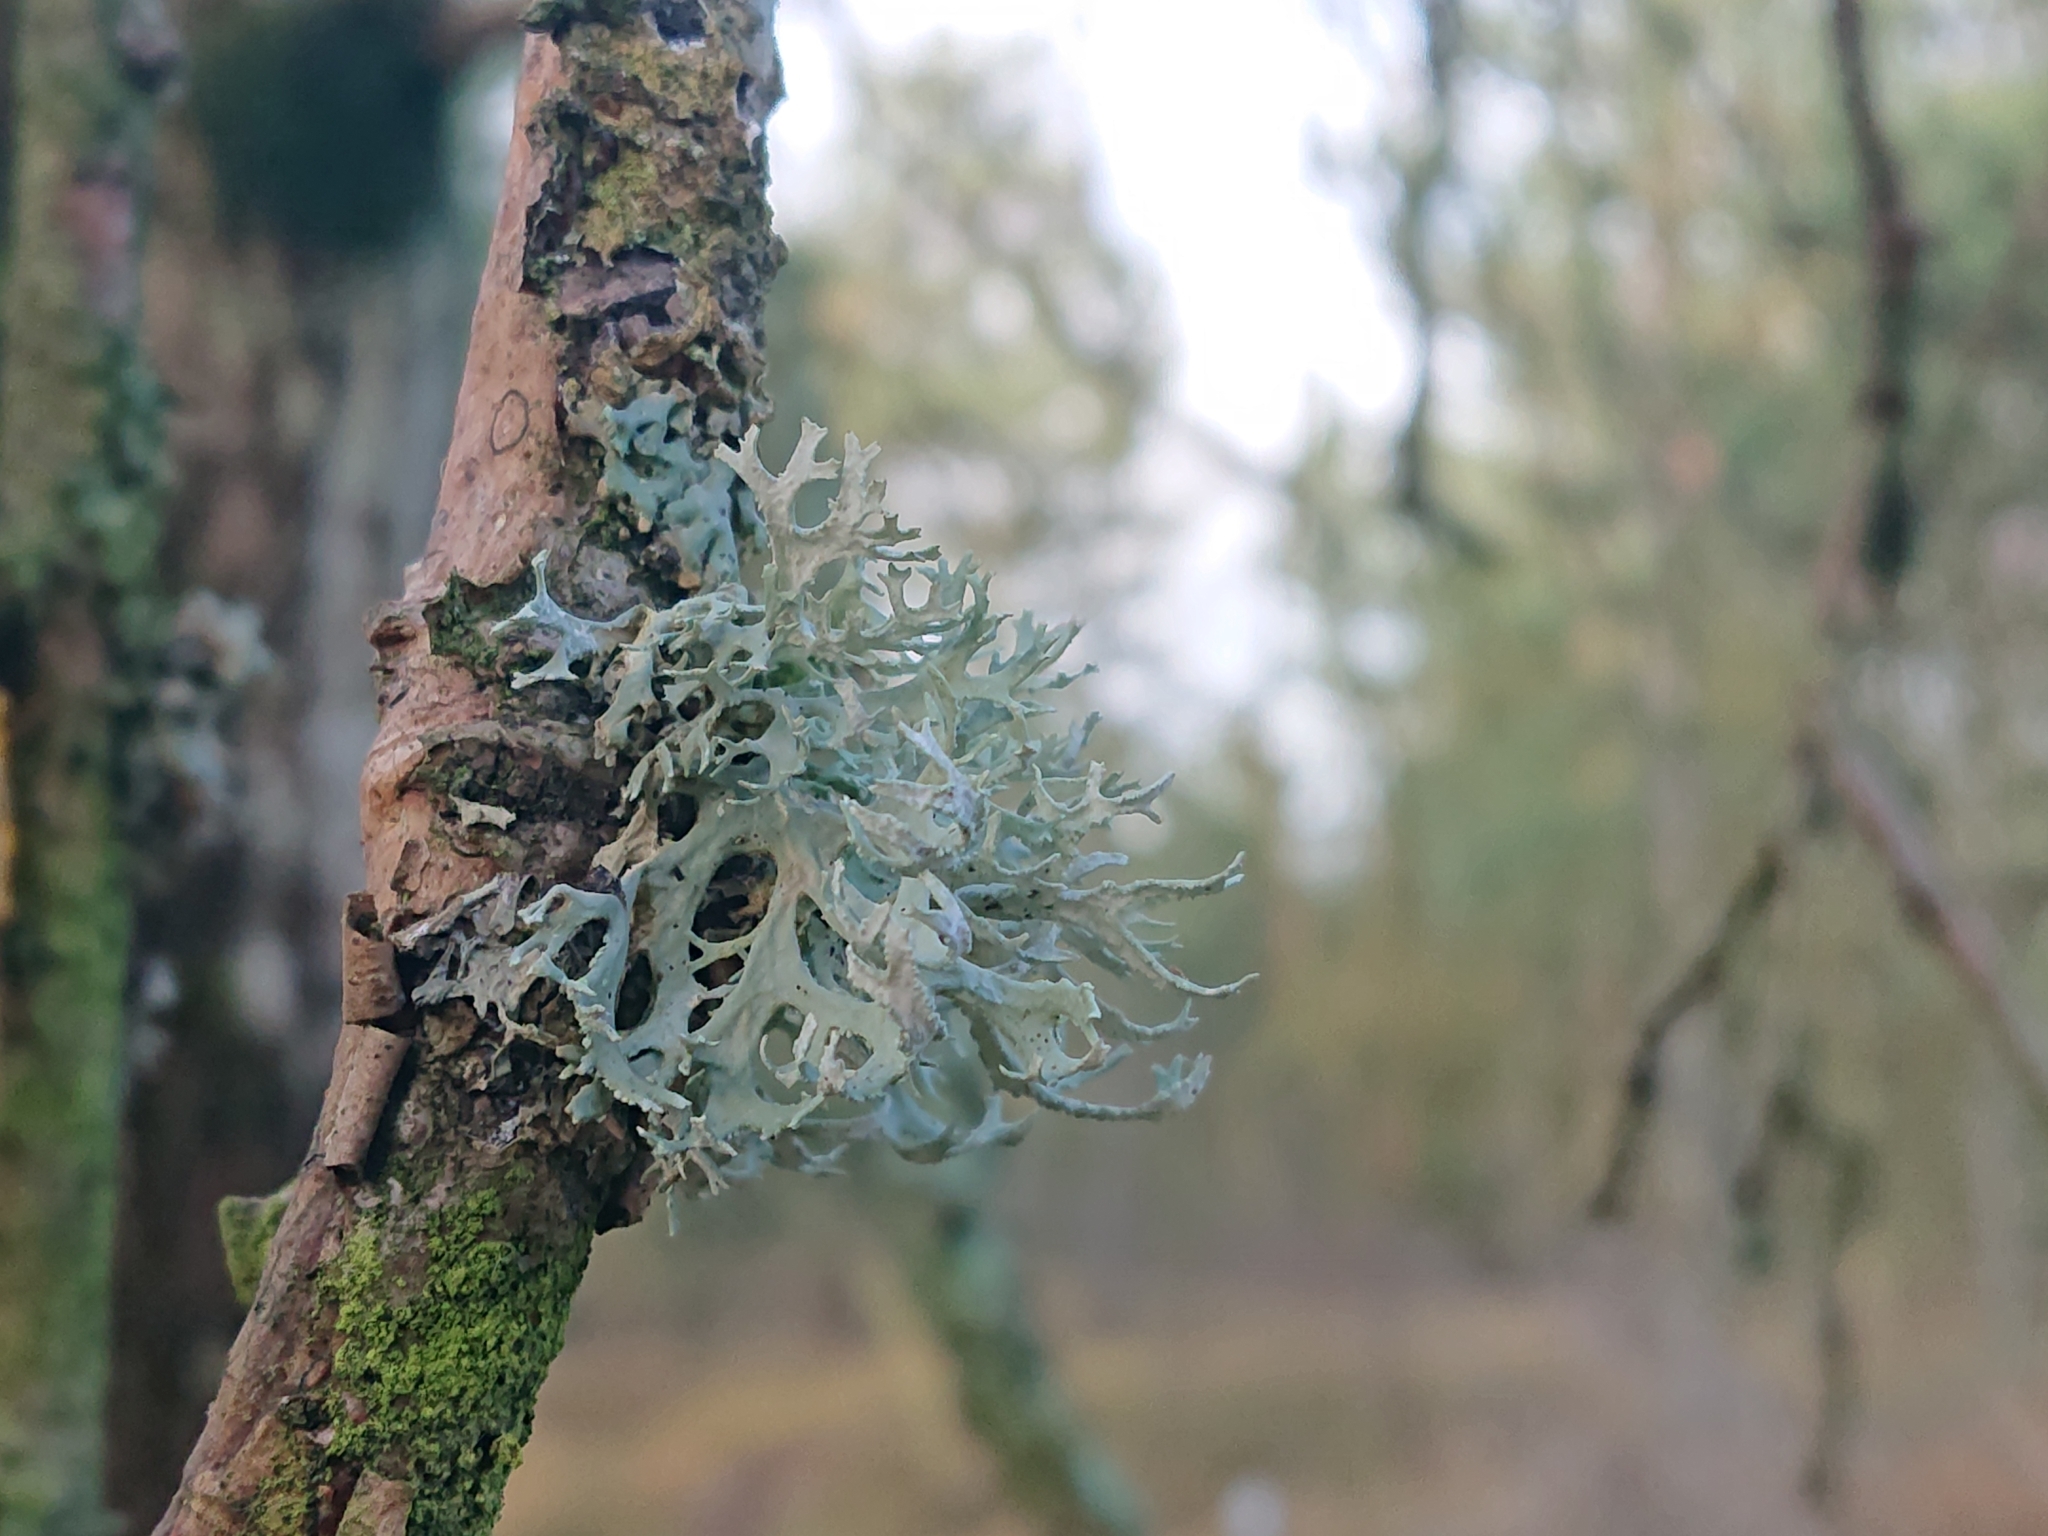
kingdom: Fungi
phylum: Ascomycota
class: Lecanoromycetes
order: Lecanorales
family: Parmeliaceae
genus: Evernia
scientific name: Evernia prunastri
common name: Oak moss
